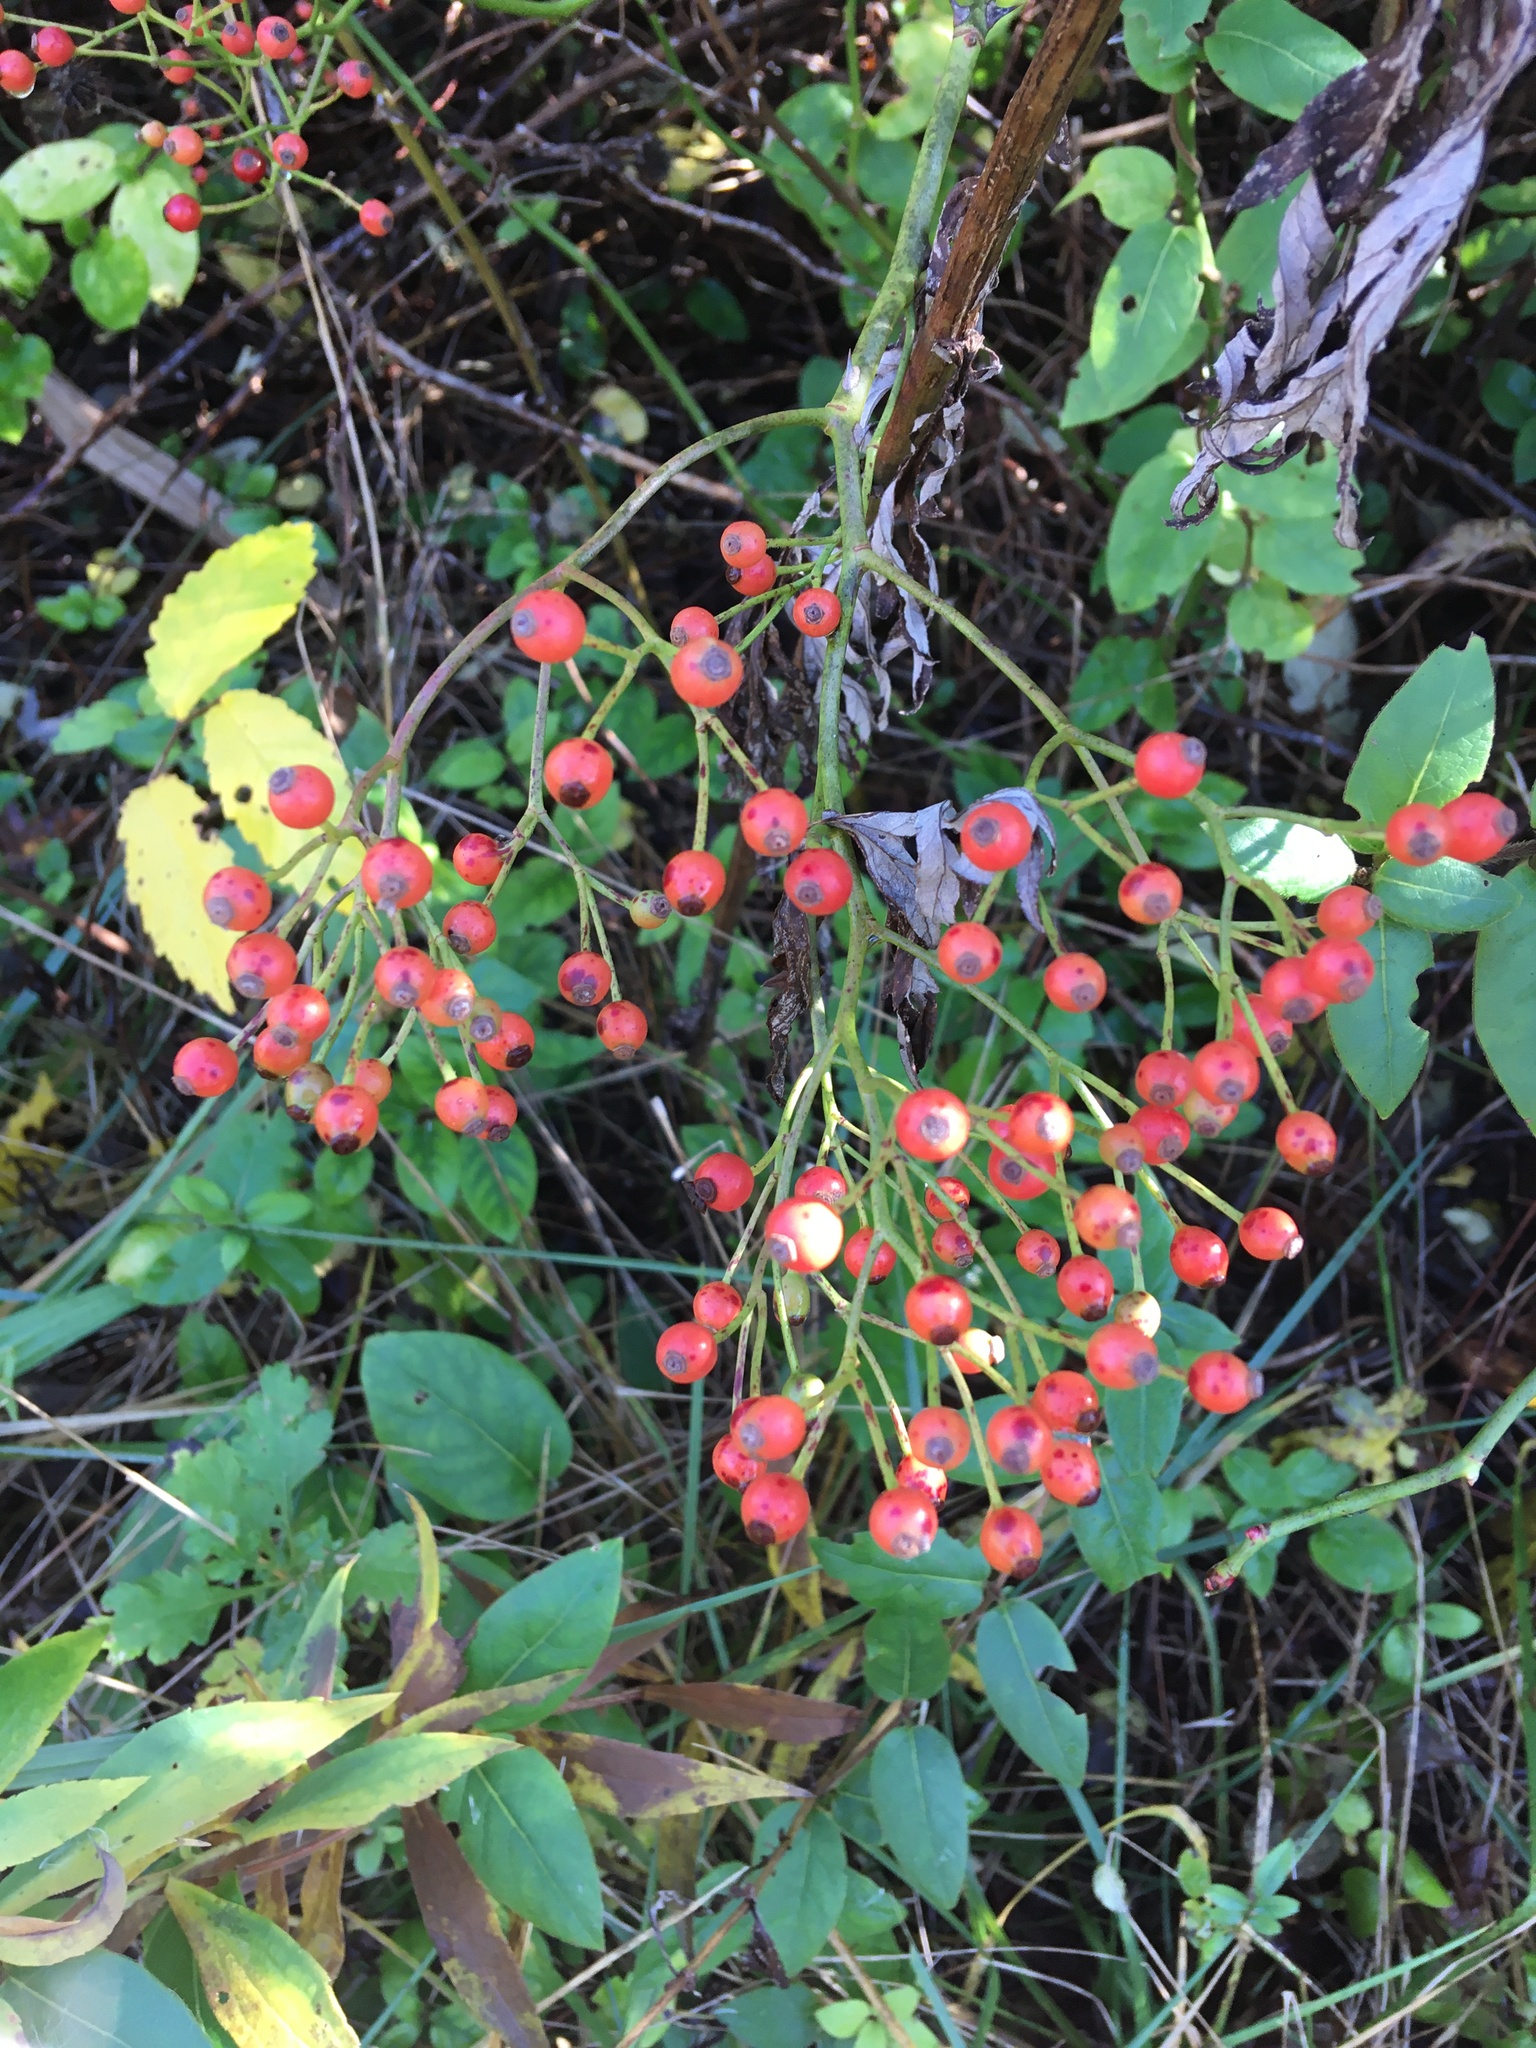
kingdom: Plantae
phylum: Tracheophyta
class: Magnoliopsida
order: Rosales
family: Rosaceae
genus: Rosa
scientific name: Rosa multiflora
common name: Multiflora rose
